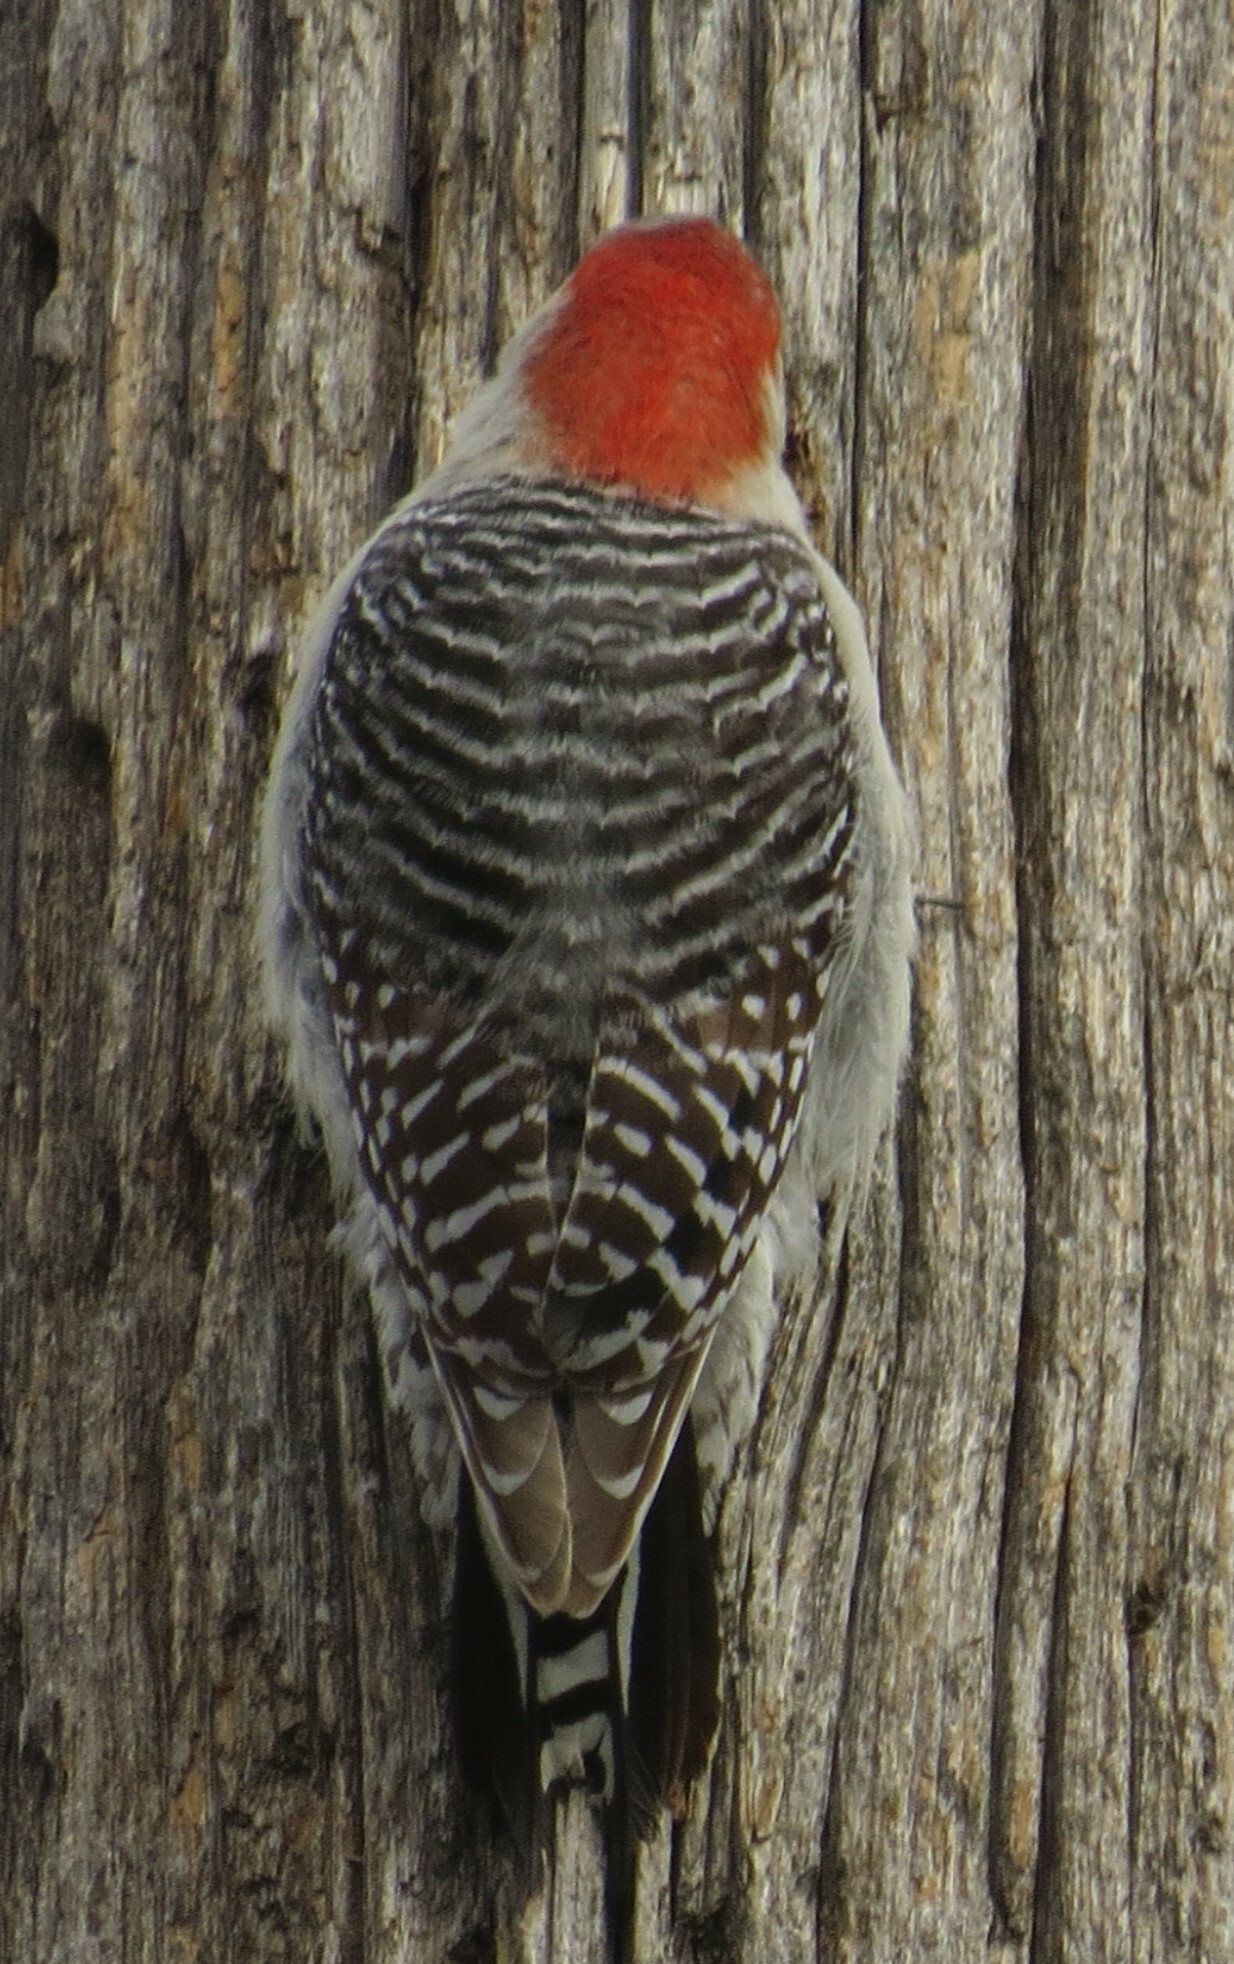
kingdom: Animalia
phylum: Chordata
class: Aves
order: Piciformes
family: Picidae
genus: Melanerpes
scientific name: Melanerpes carolinus
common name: Red-bellied woodpecker
